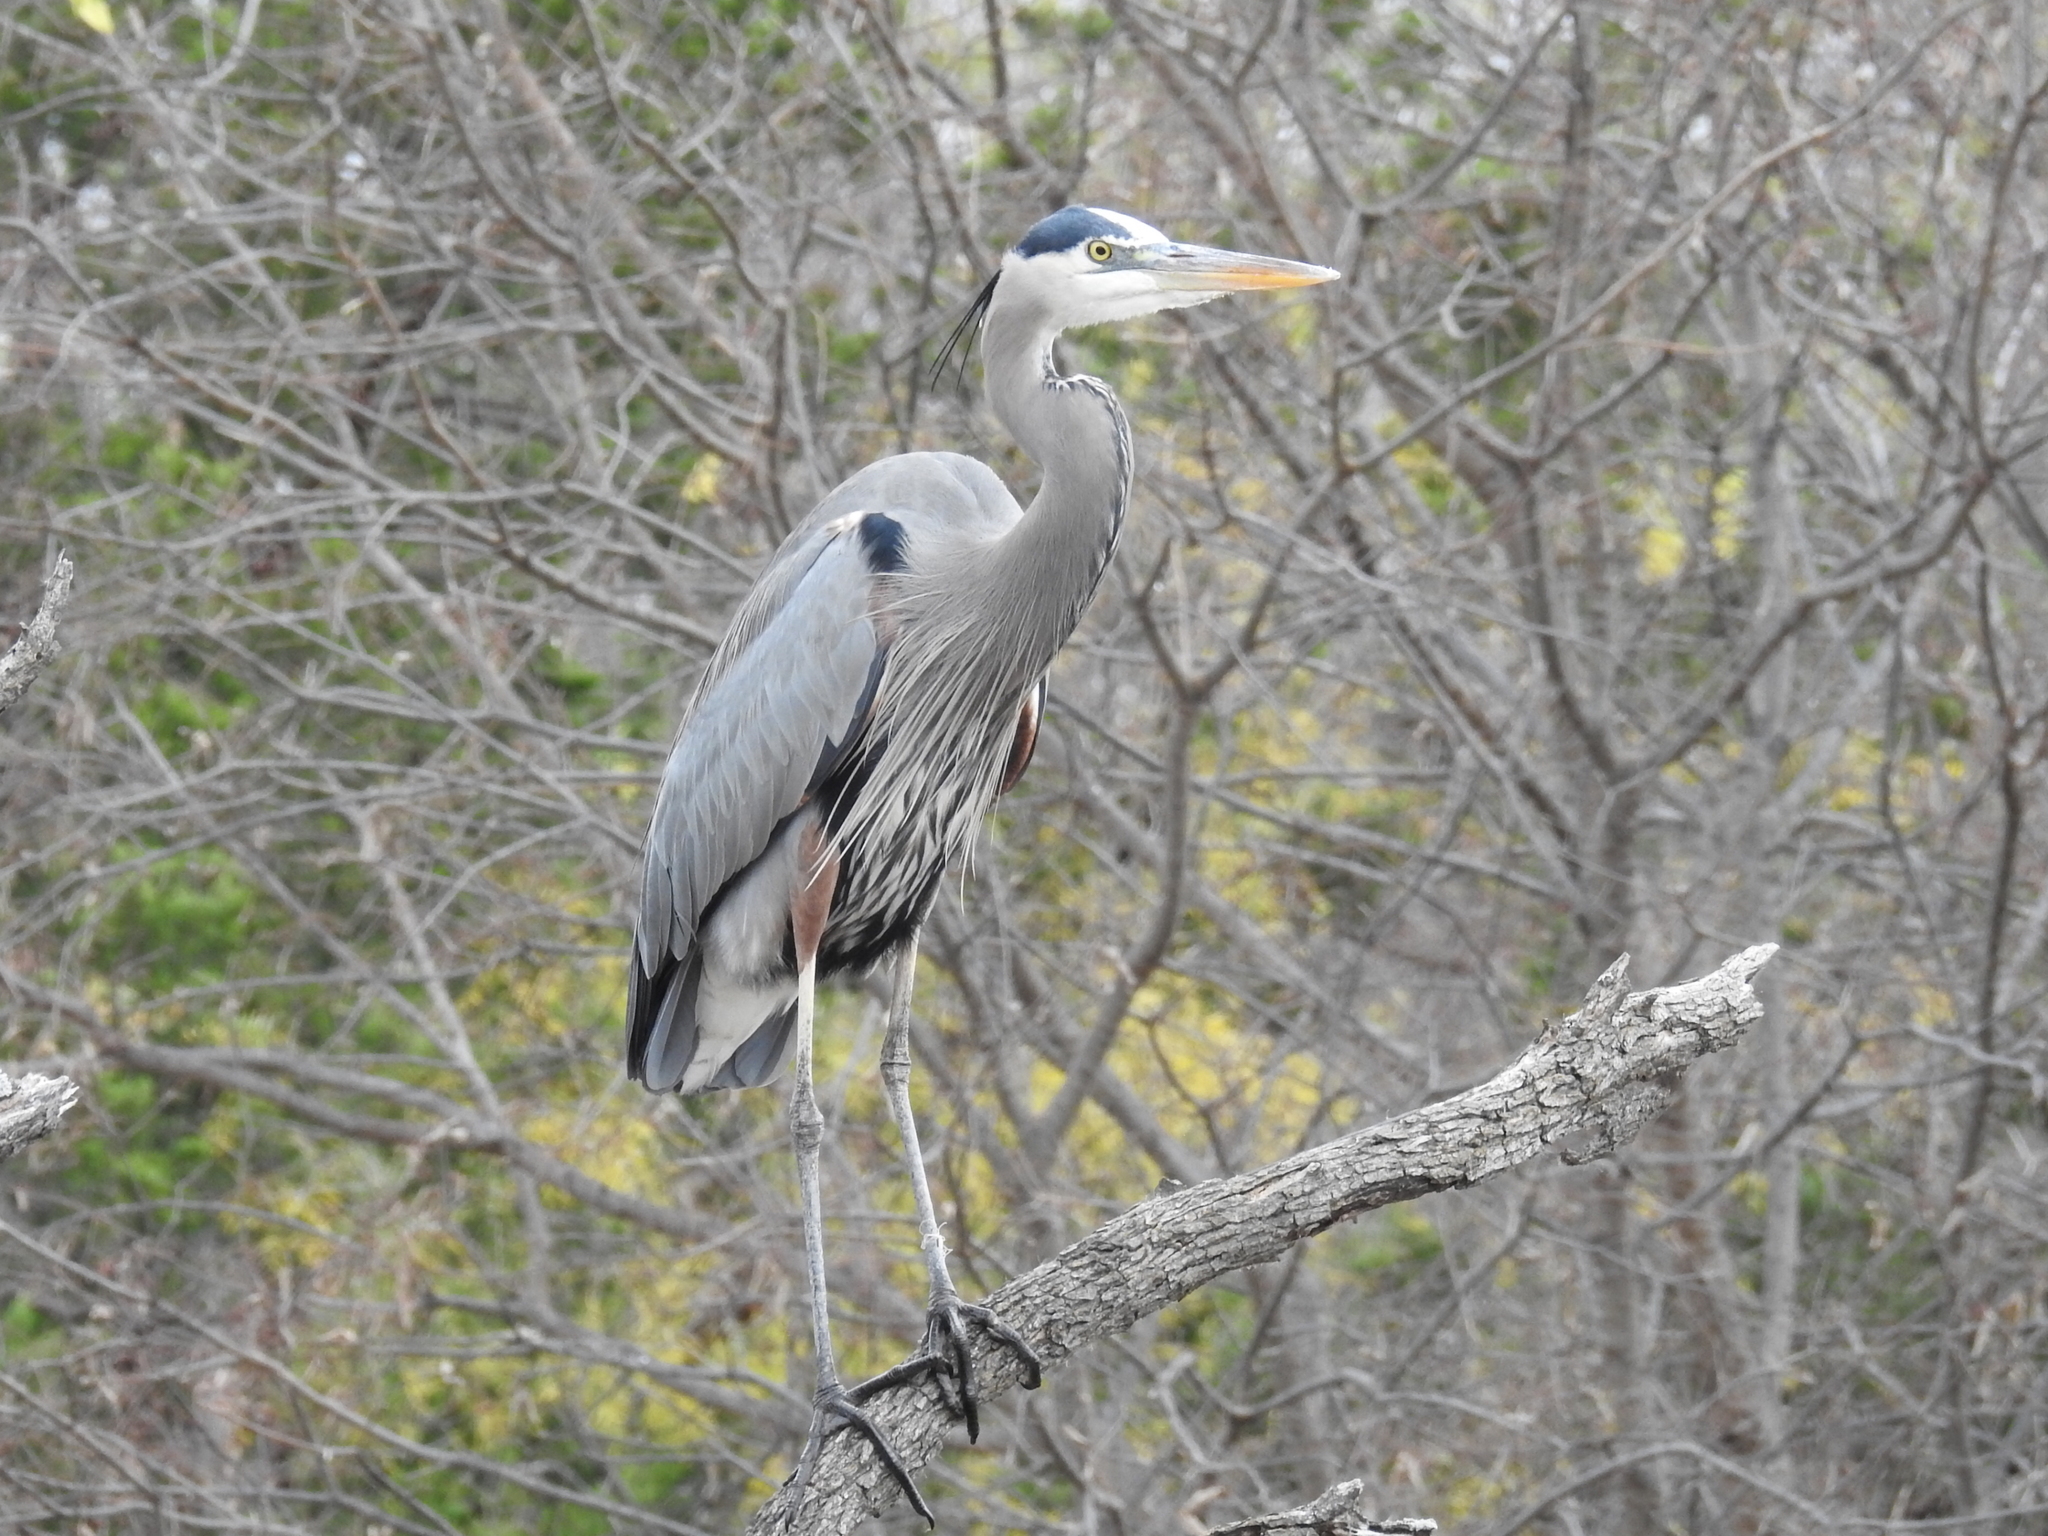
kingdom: Animalia
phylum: Chordata
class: Aves
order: Pelecaniformes
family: Ardeidae
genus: Ardea
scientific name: Ardea herodias
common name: Great blue heron
